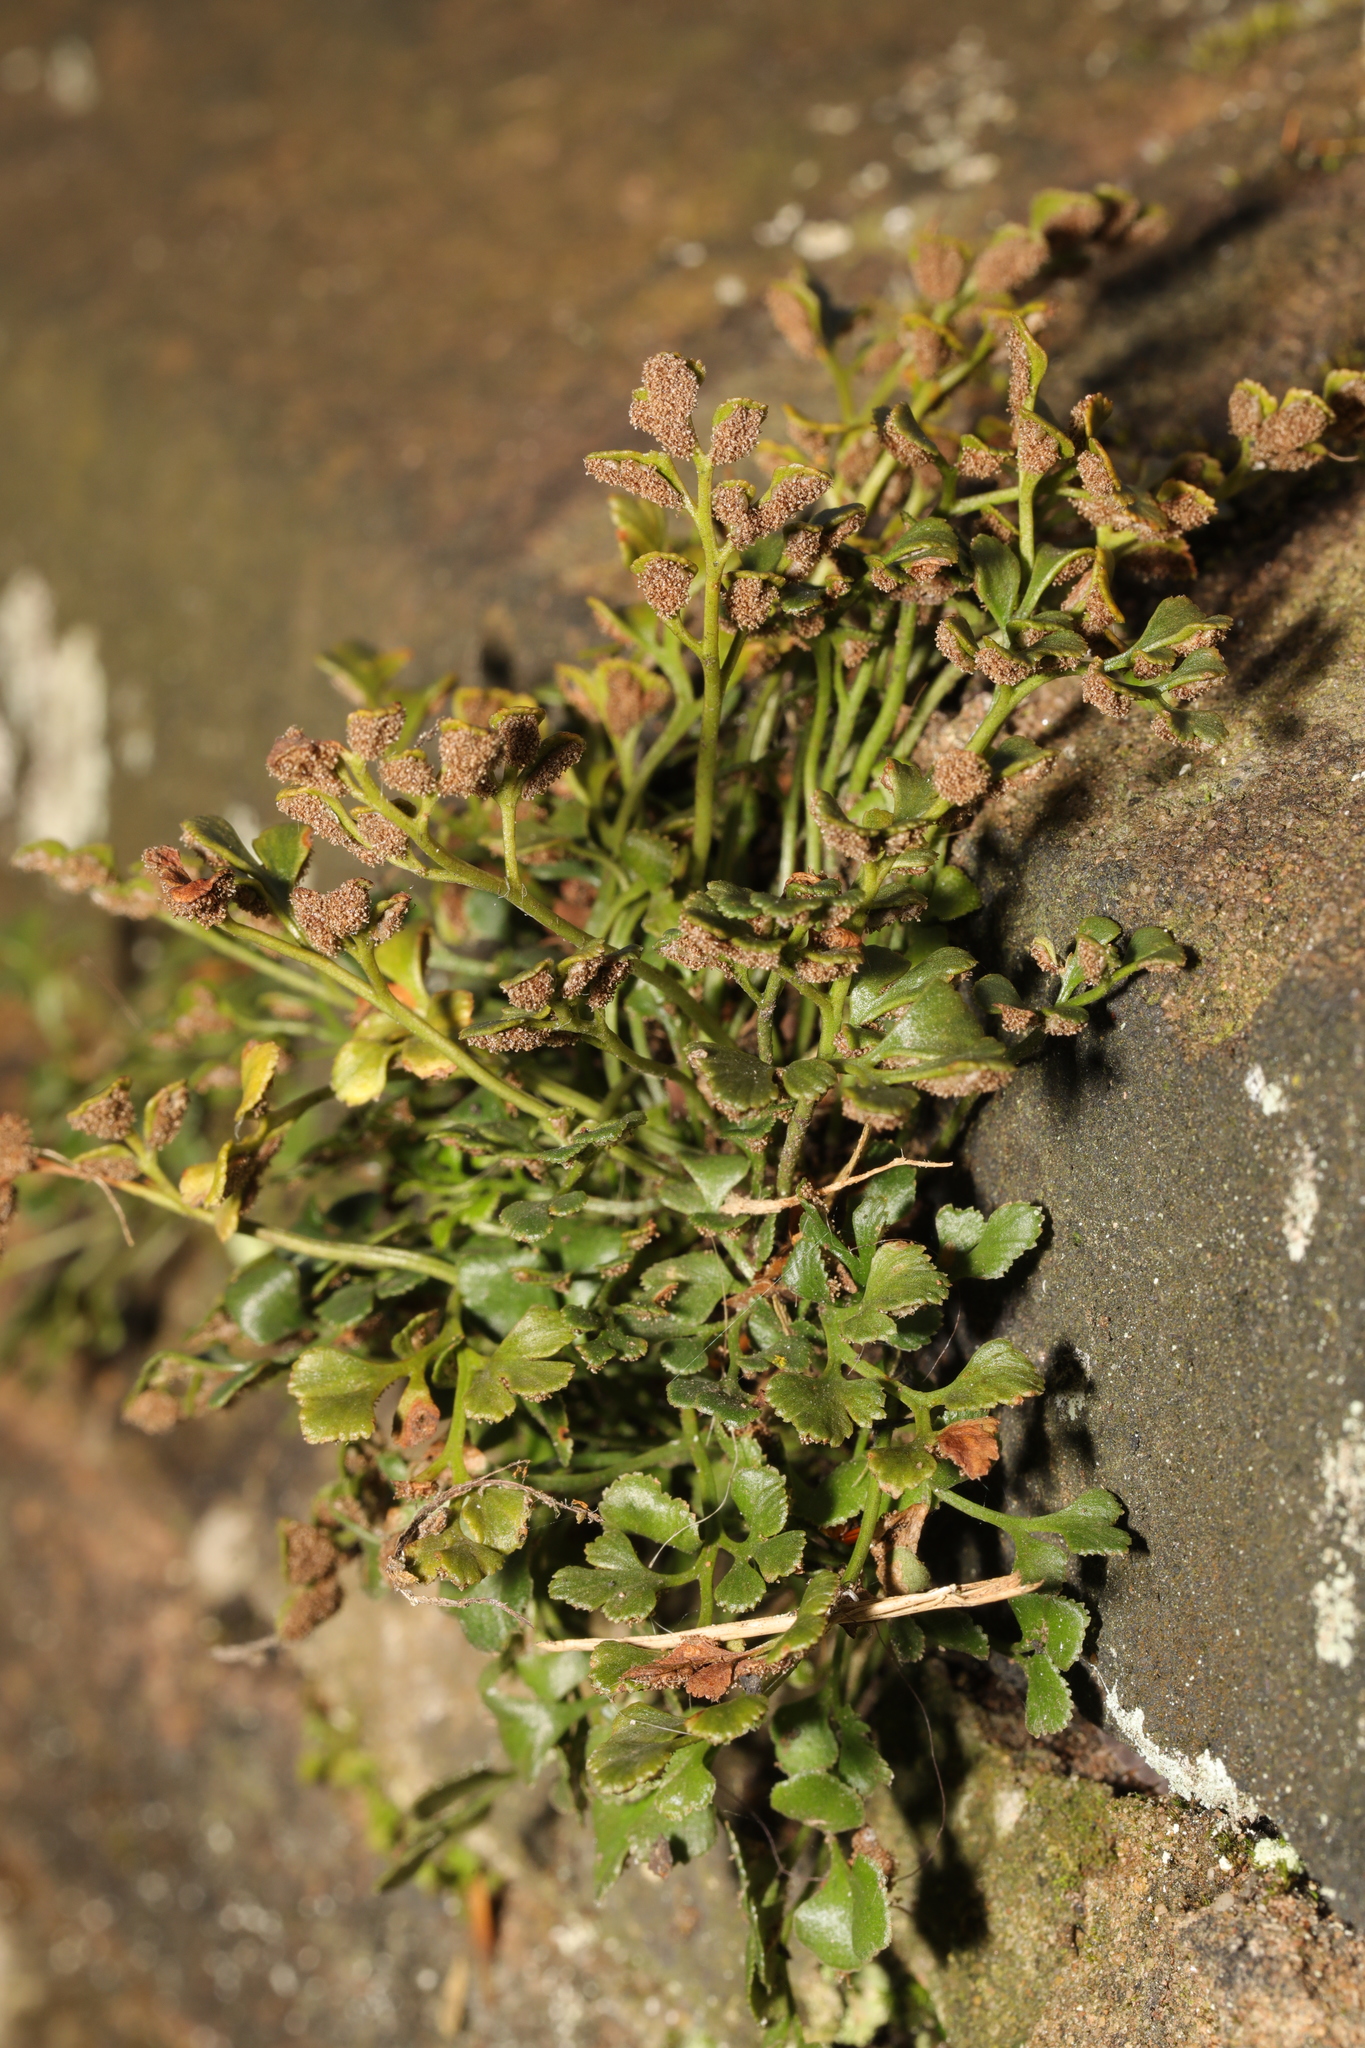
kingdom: Plantae
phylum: Tracheophyta
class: Polypodiopsida
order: Polypodiales
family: Aspleniaceae
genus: Asplenium
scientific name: Asplenium ruta-muraria
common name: Wall-rue
